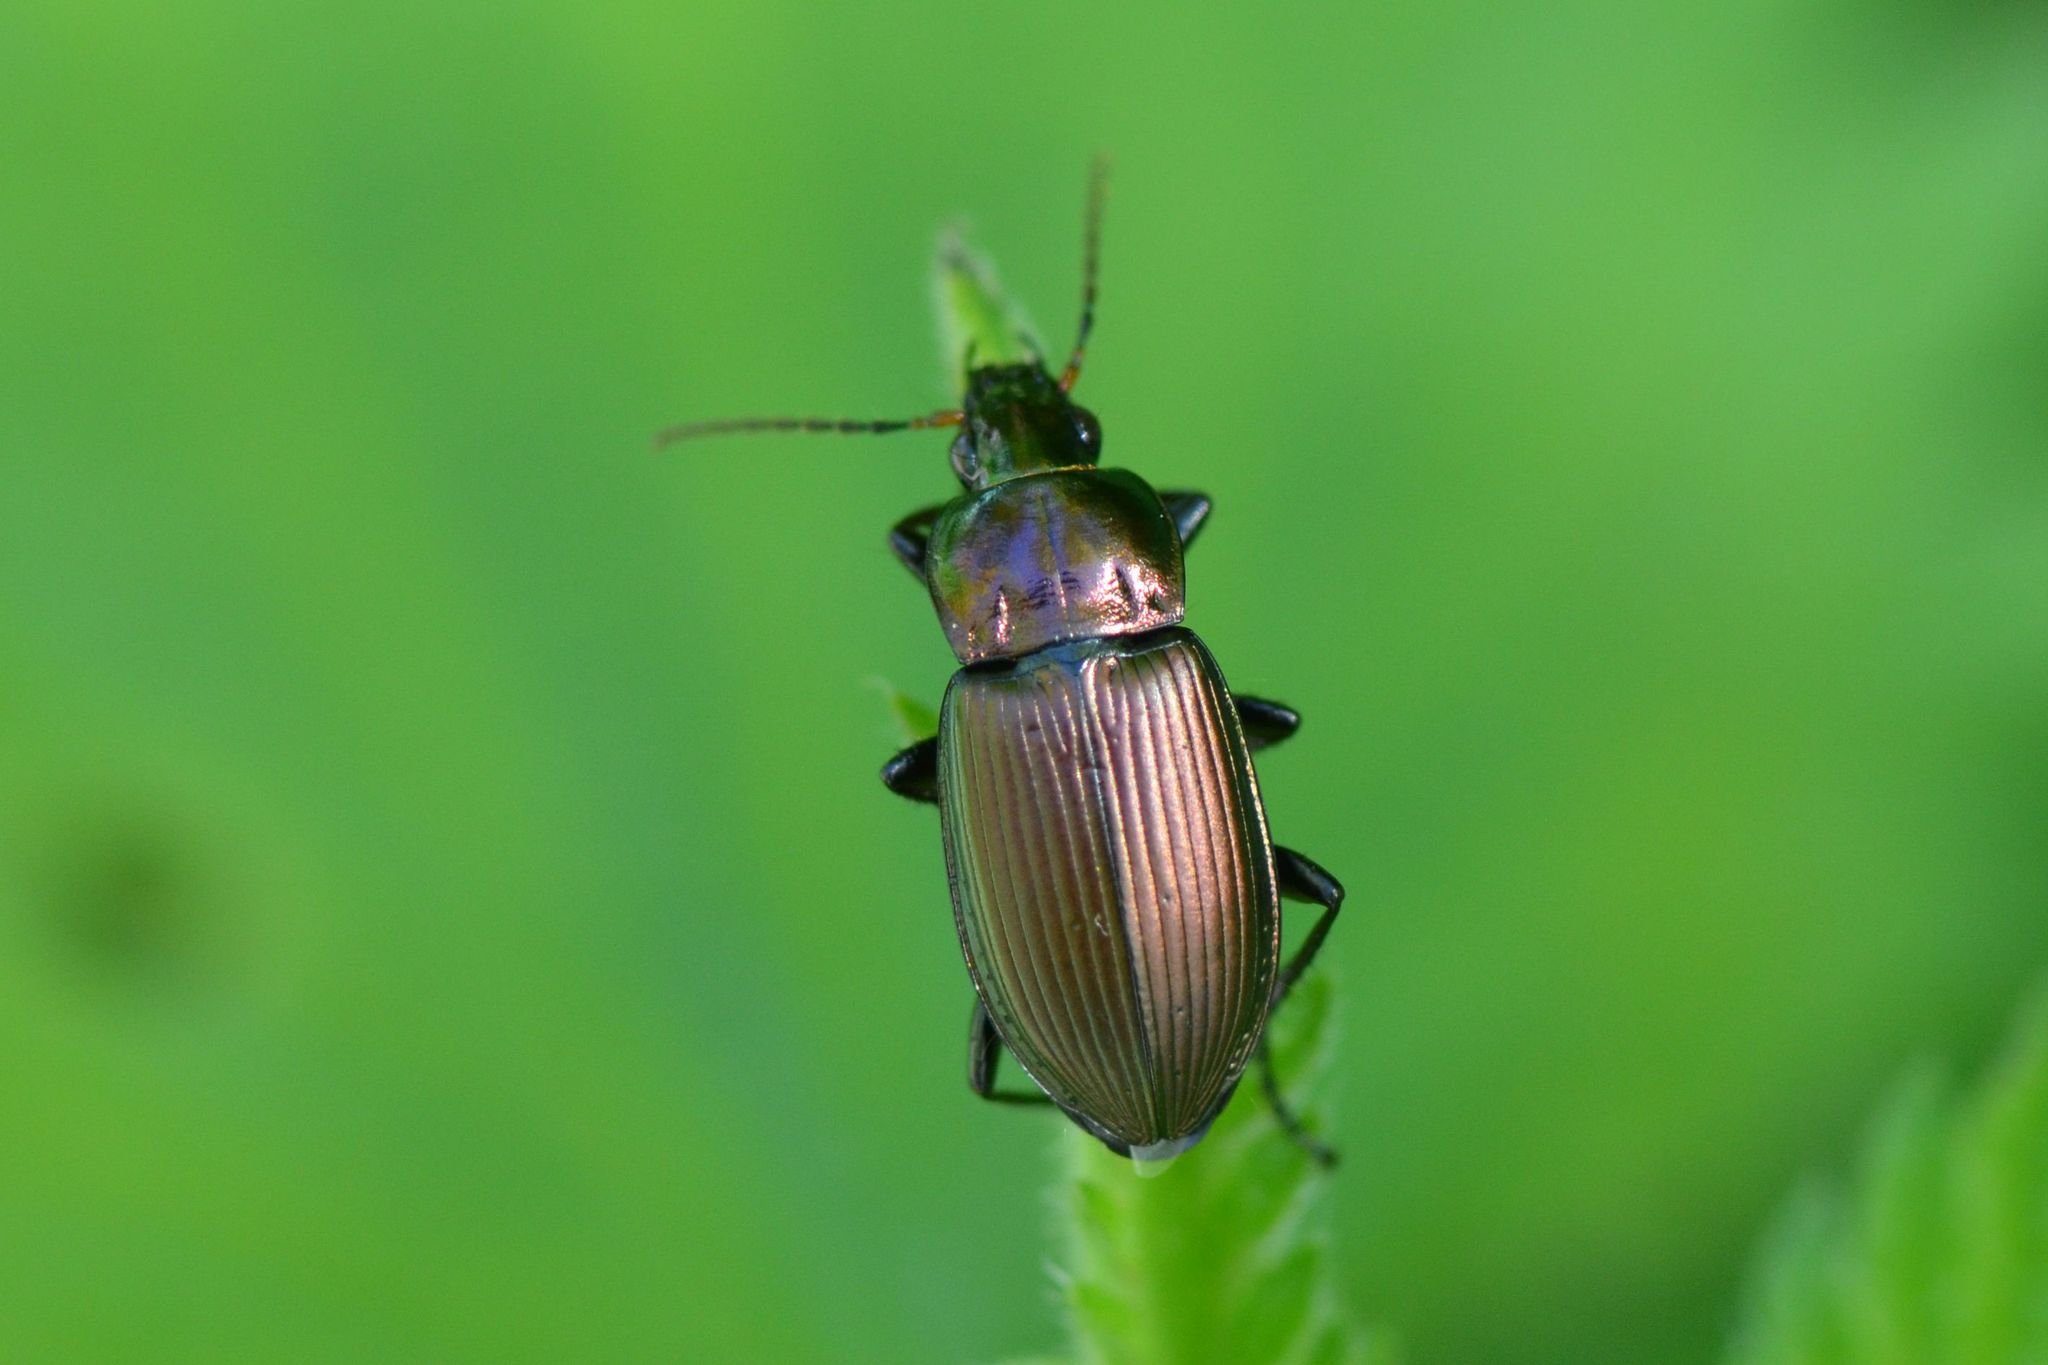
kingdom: Animalia
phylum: Arthropoda
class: Insecta
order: Coleoptera
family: Carabidae
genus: Poecilus
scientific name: Poecilus cupreus
